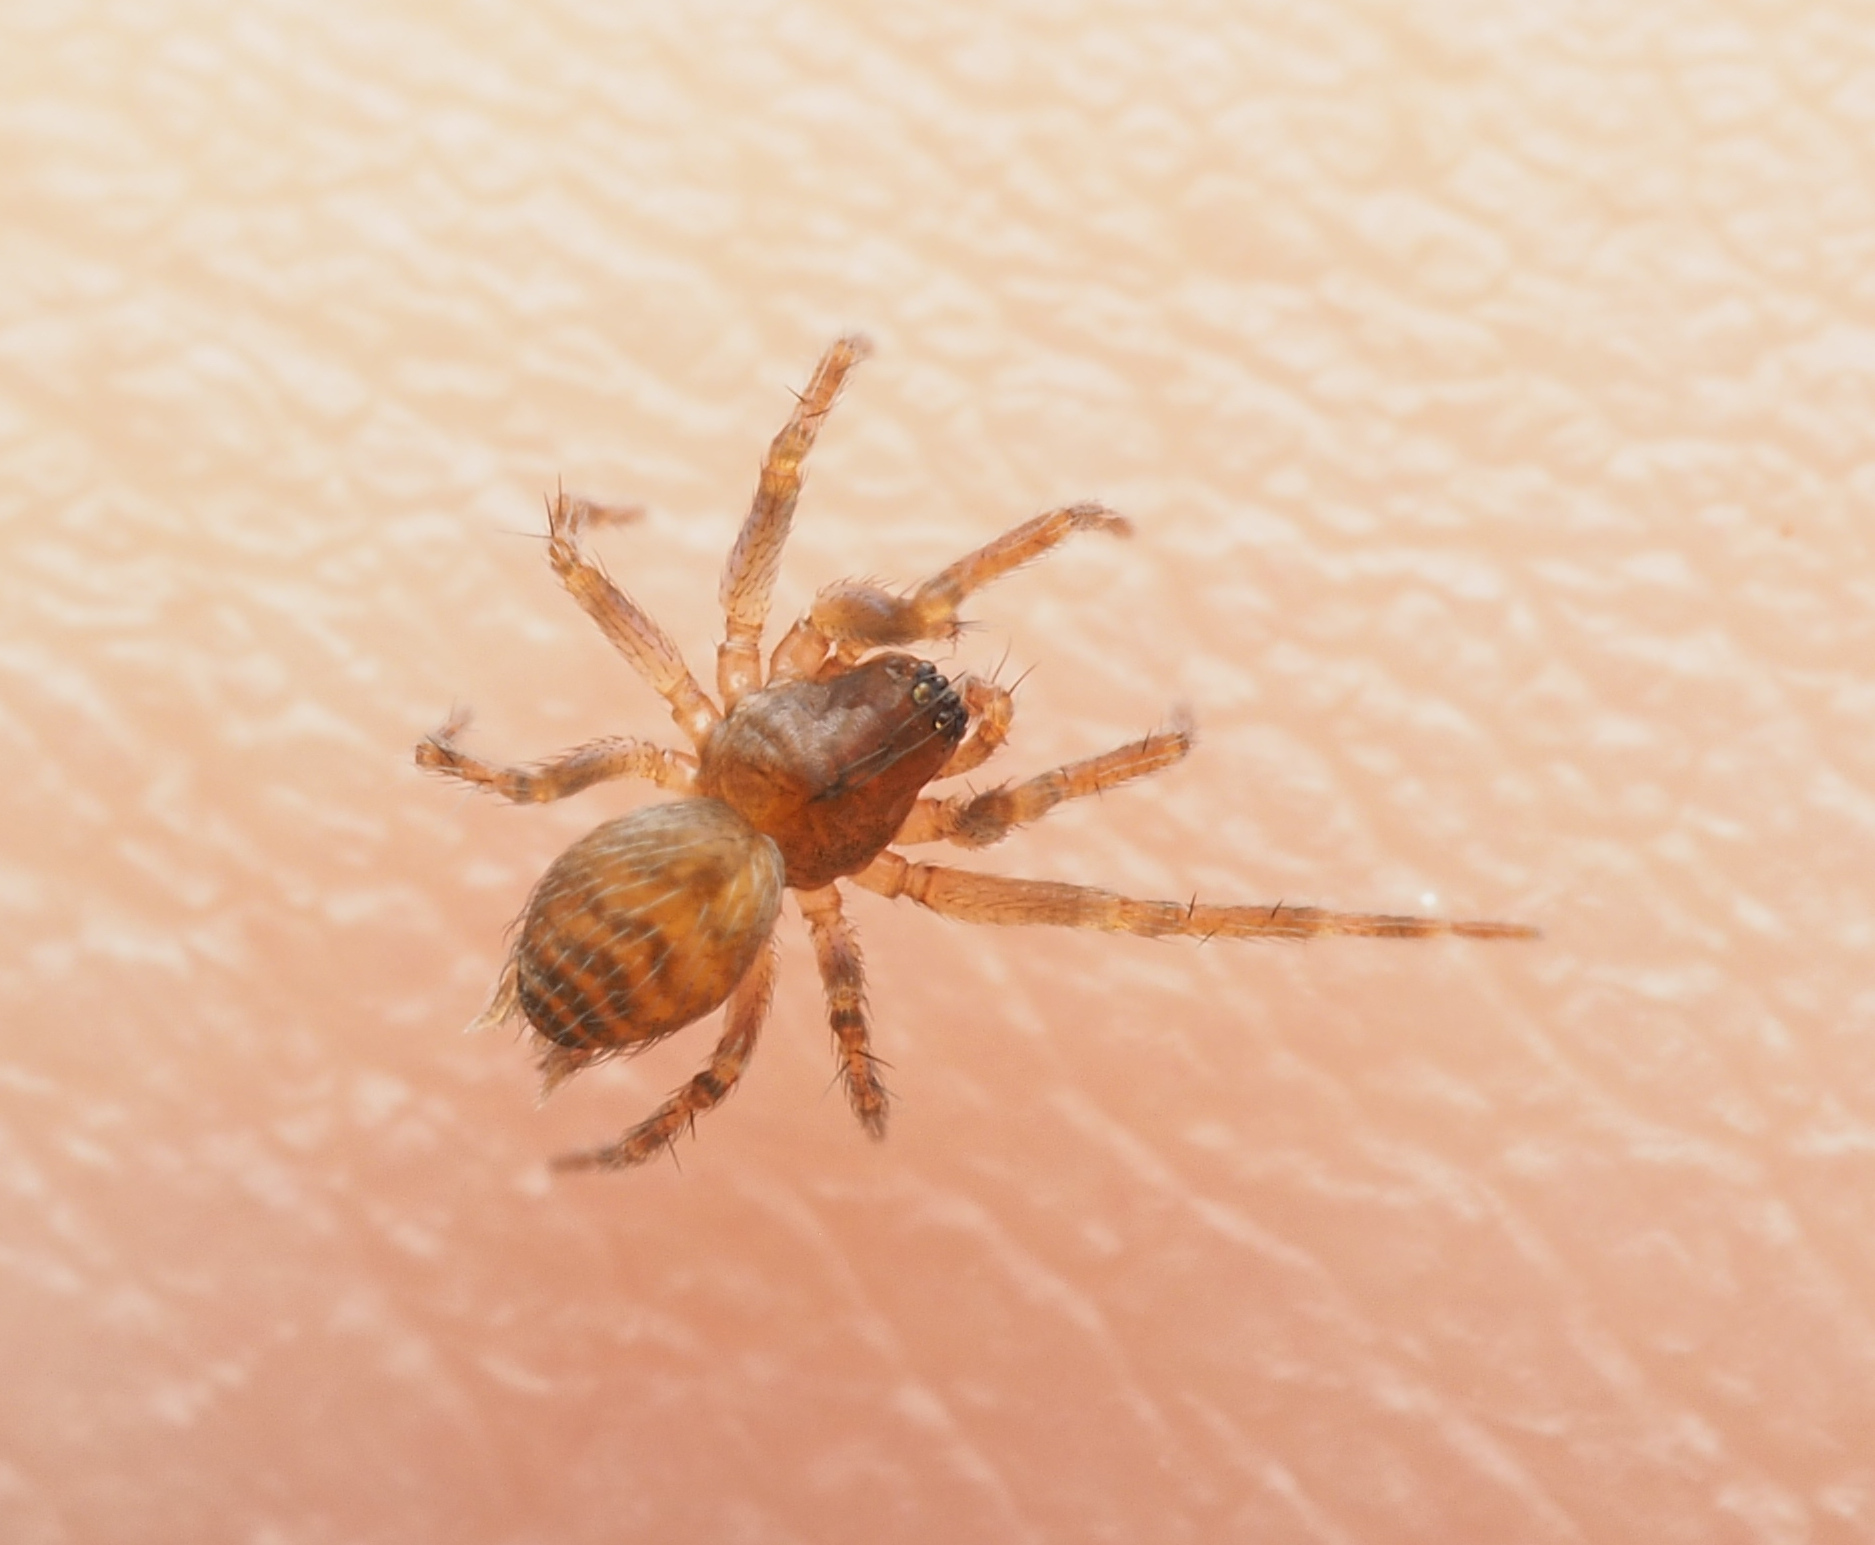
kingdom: Animalia
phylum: Arthropoda
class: Arachnida
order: Araneae
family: Hahniidae
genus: Alistra
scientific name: Alistra
